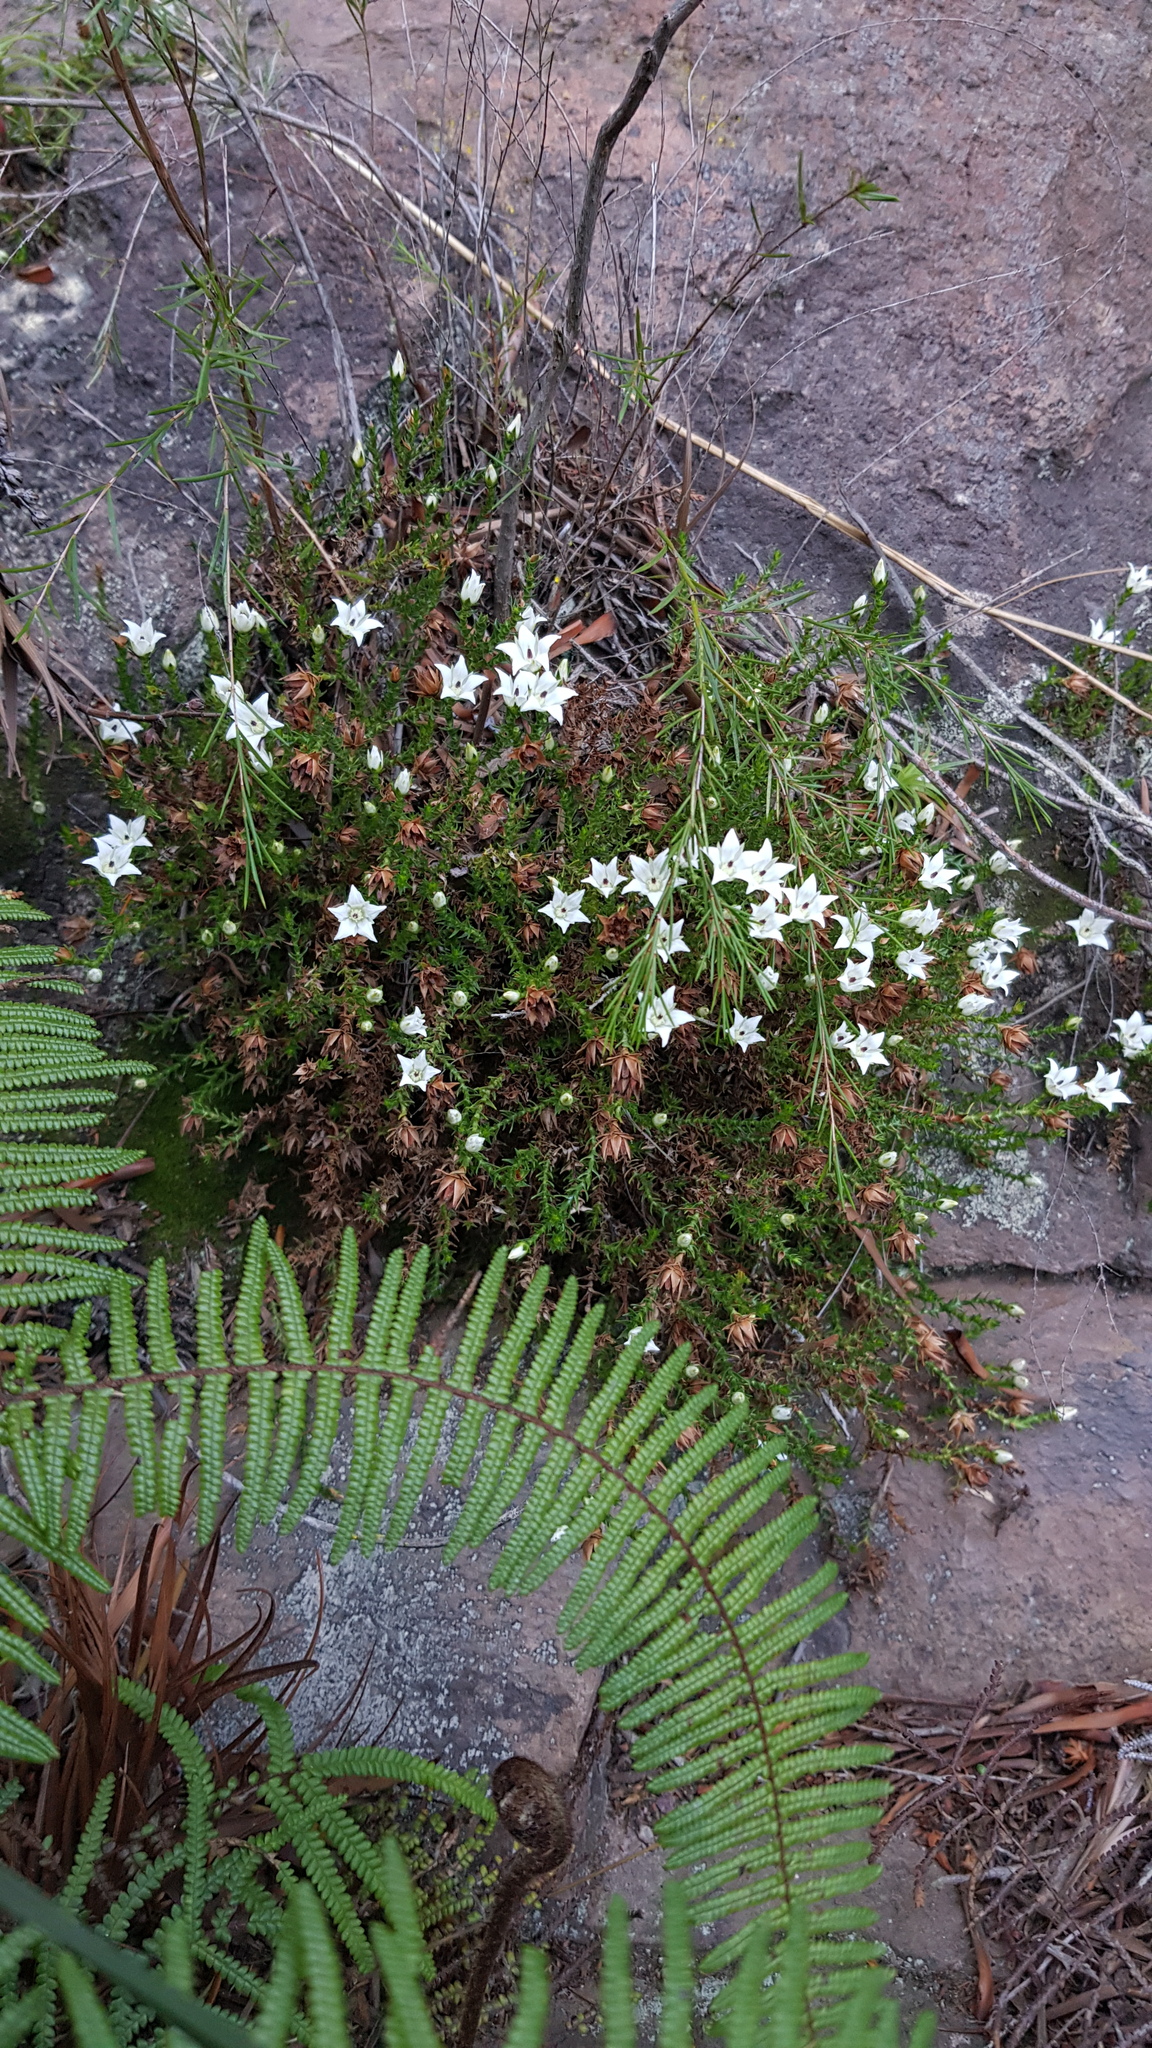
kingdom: Plantae
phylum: Tracheophyta
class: Magnoliopsida
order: Ericales
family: Ericaceae
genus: Sprengelia
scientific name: Sprengelia monticola
